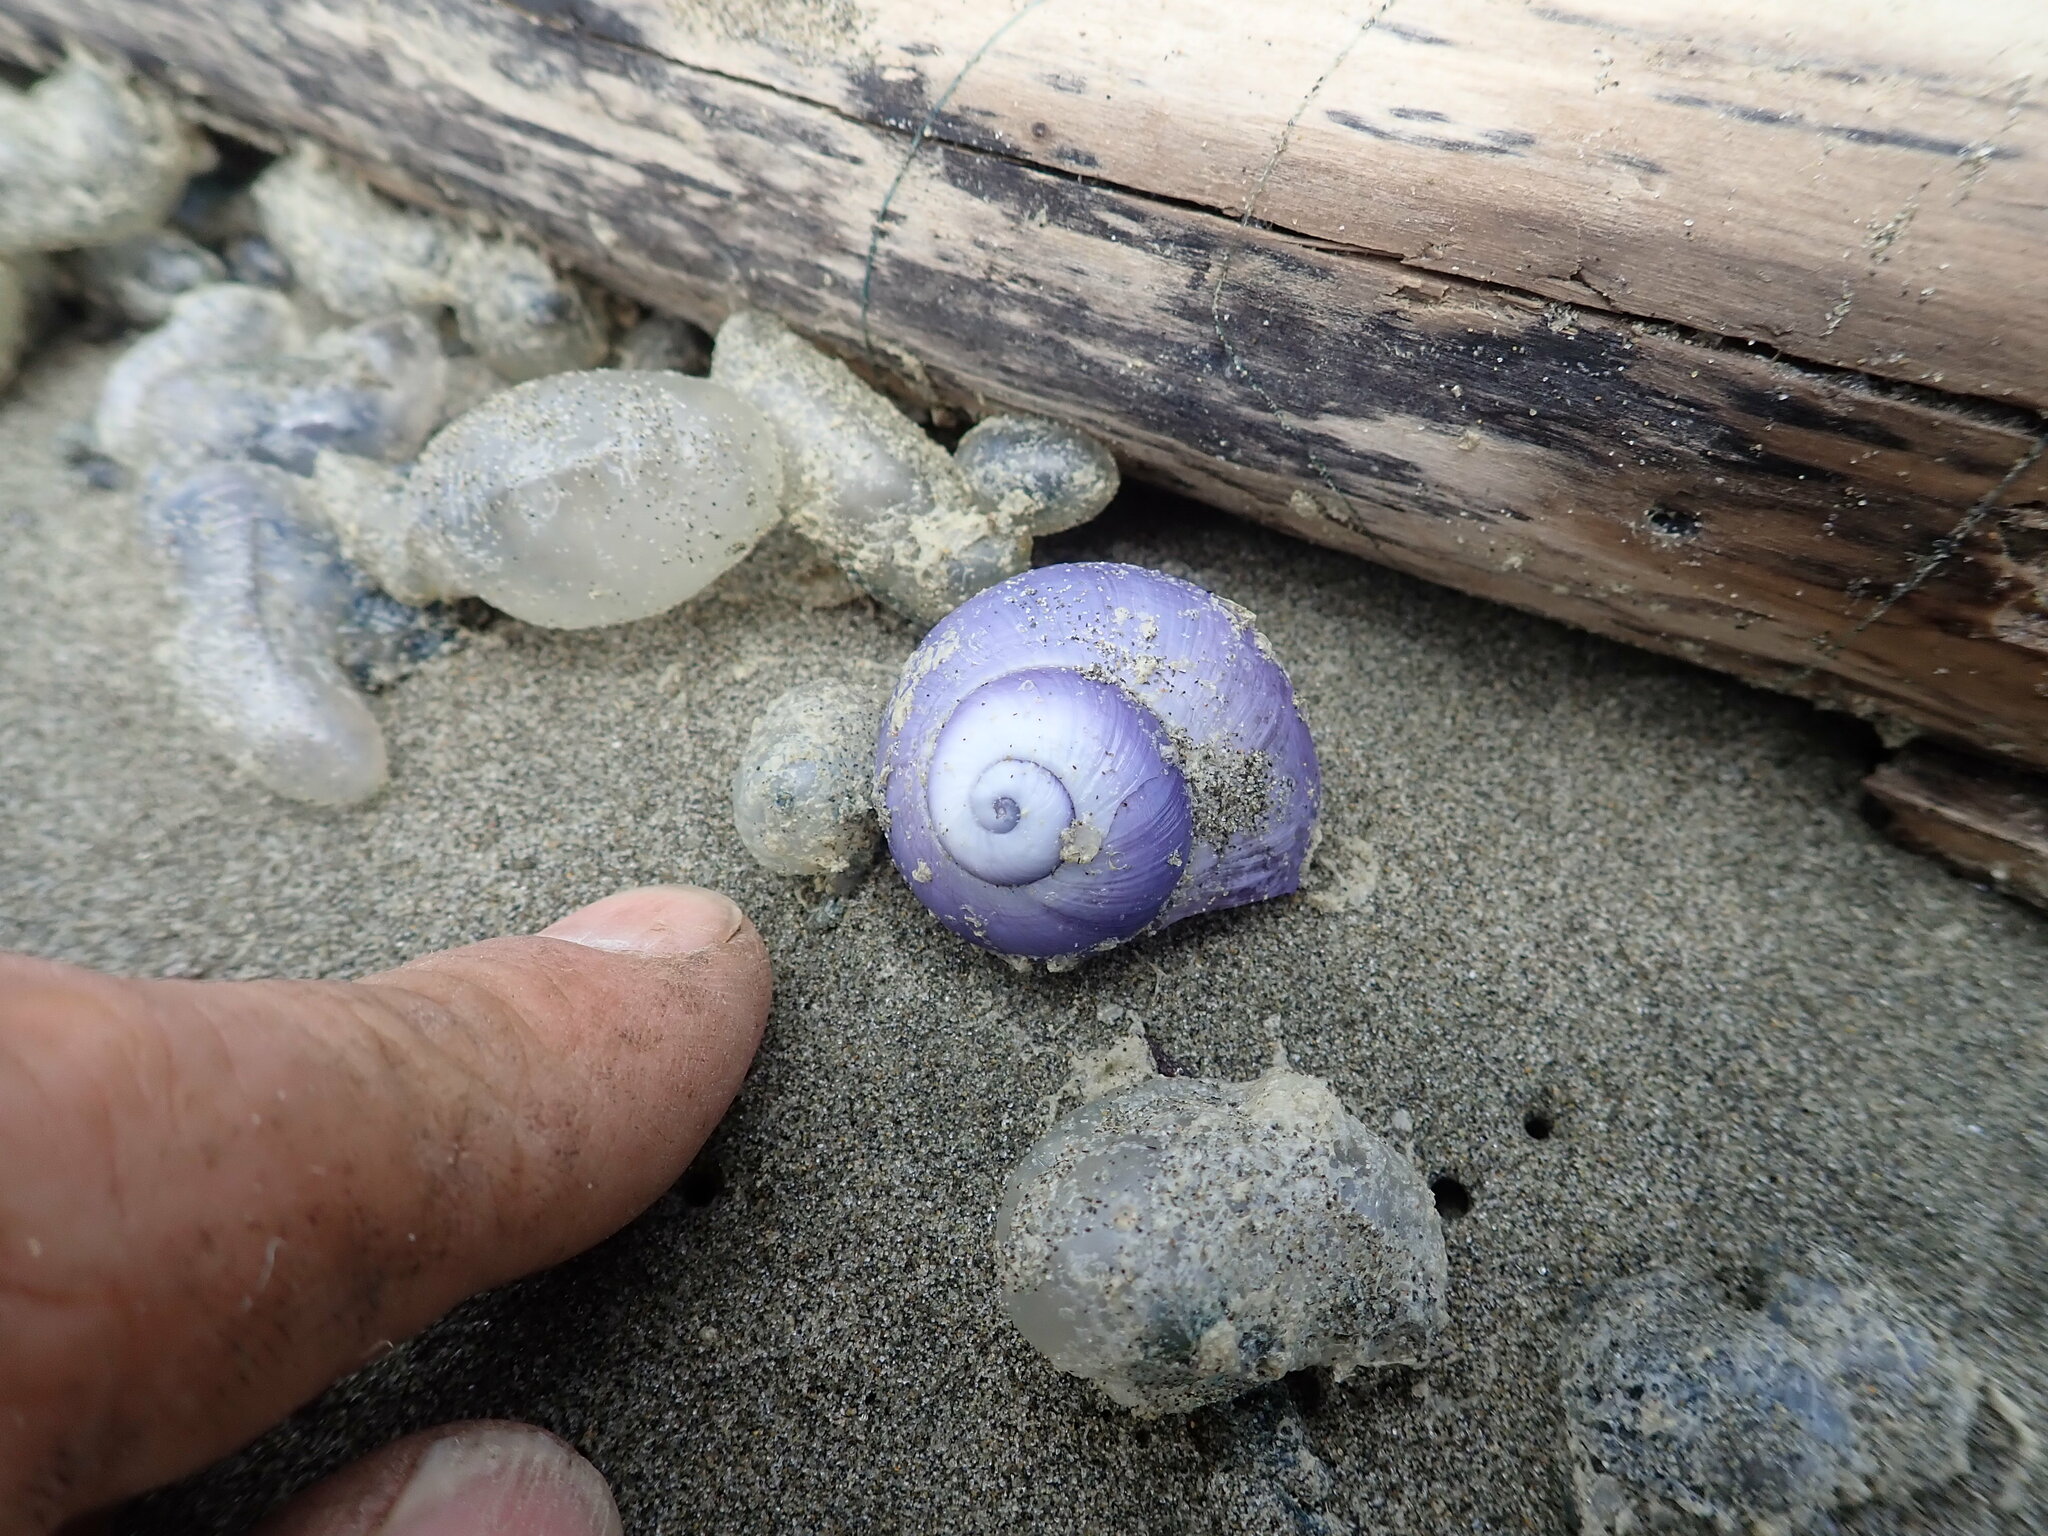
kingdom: Animalia
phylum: Mollusca
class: Gastropoda
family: Epitoniidae
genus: Janthina
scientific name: Janthina janthina
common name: Common janthina
